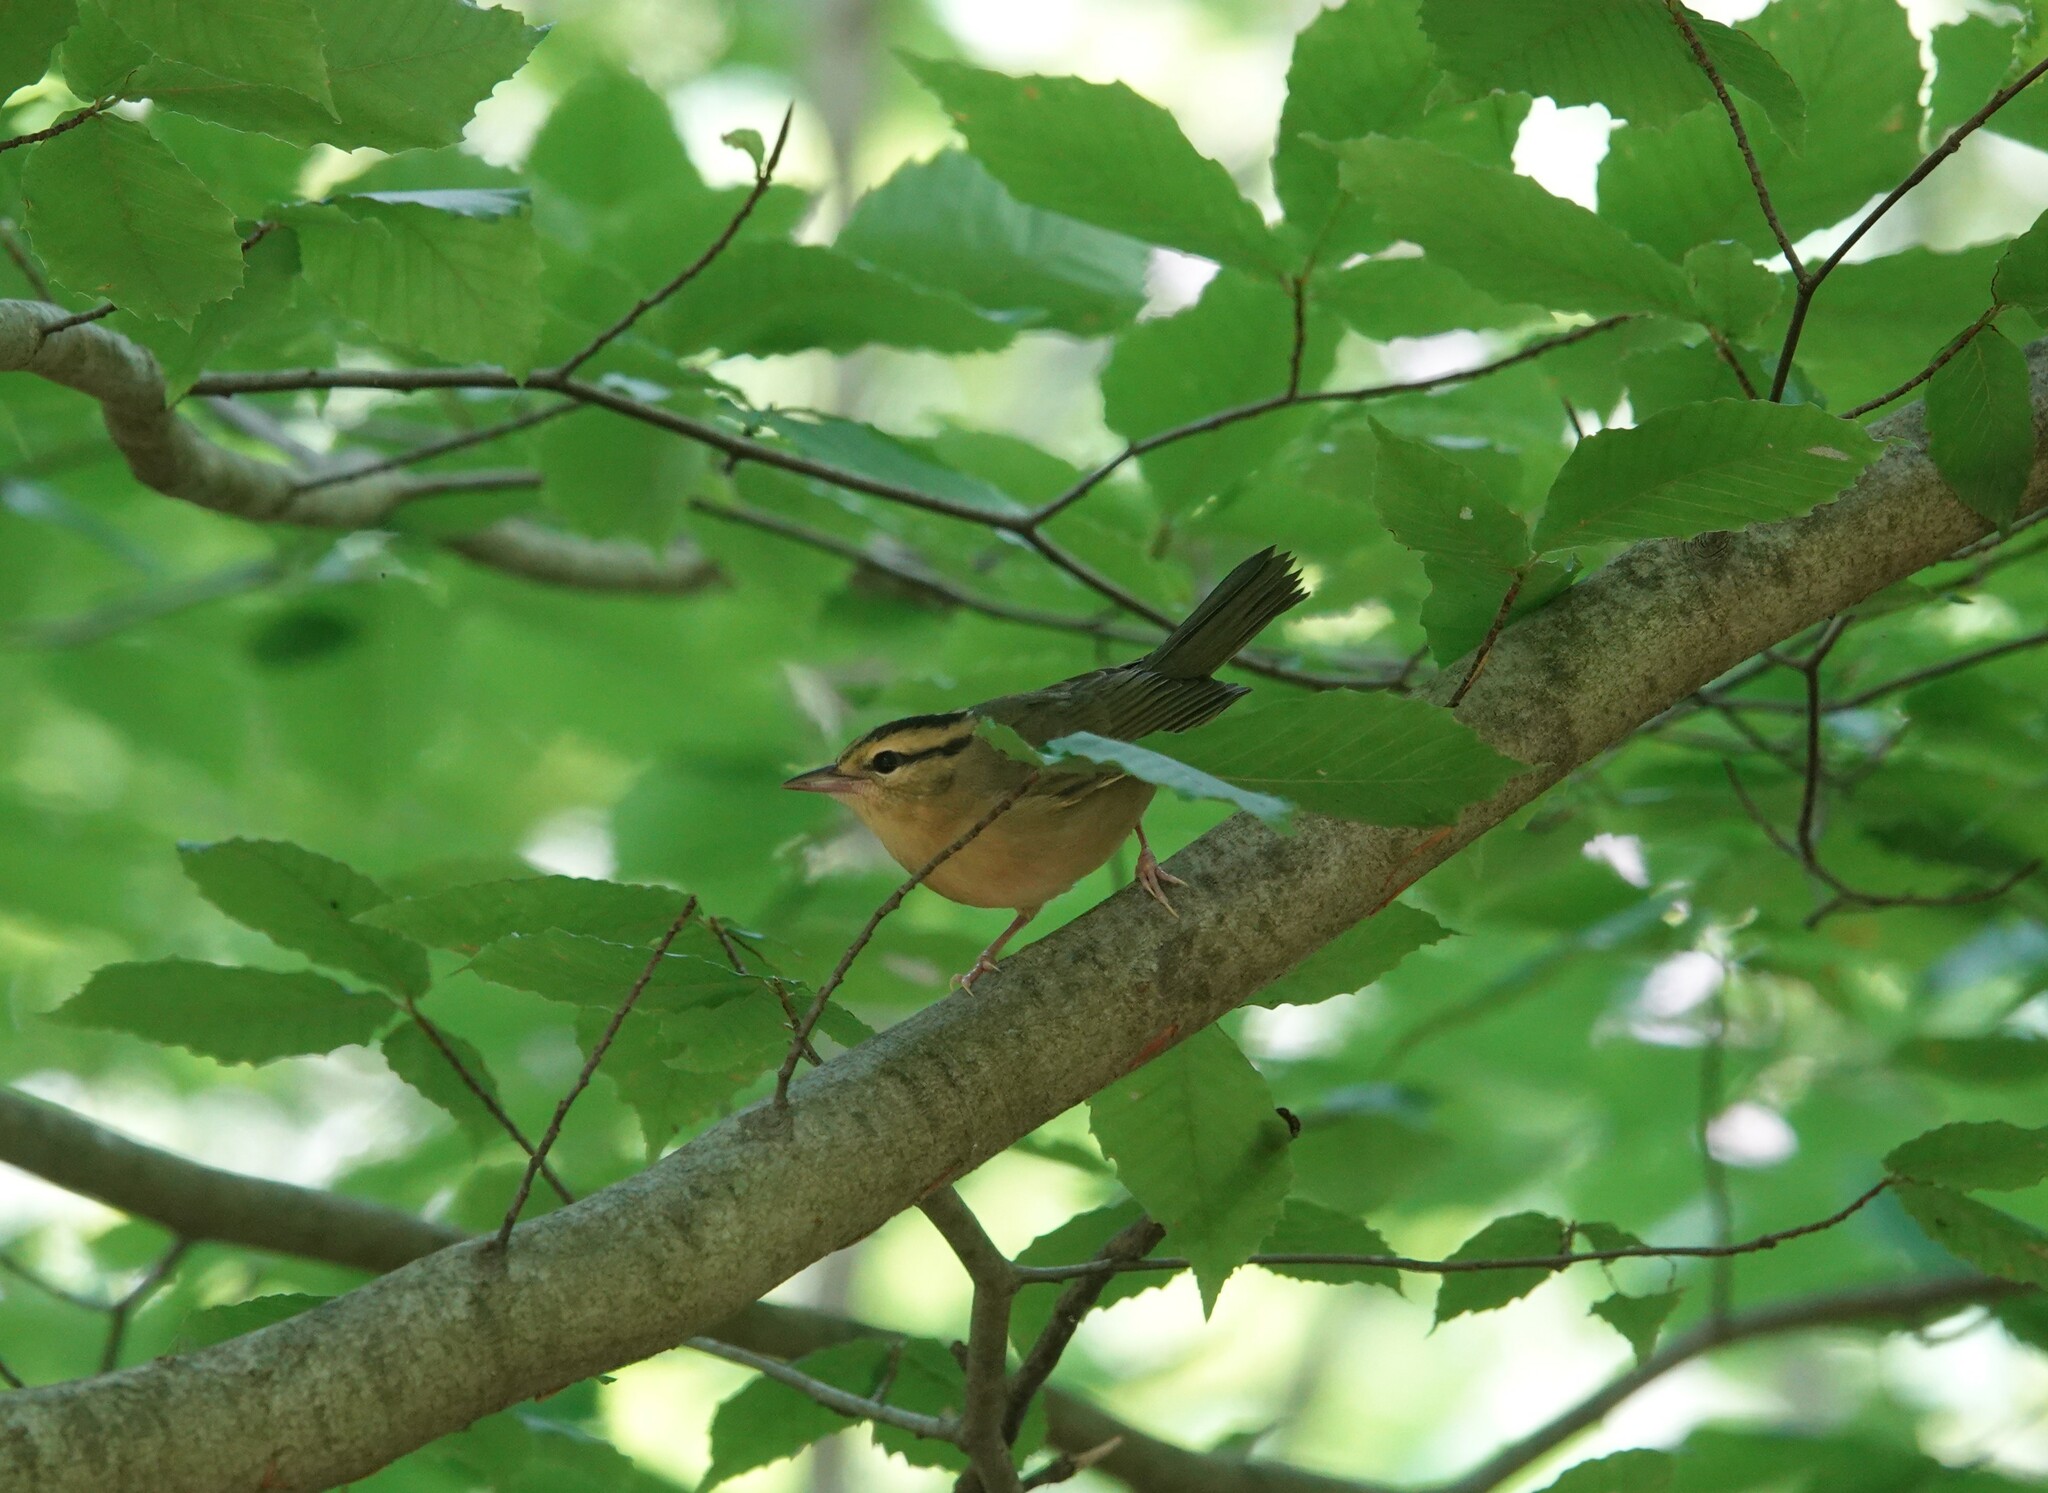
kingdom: Animalia
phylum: Chordata
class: Aves
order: Passeriformes
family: Parulidae
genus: Helmitheros
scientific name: Helmitheros vermivorum
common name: Worm-eating warbler
